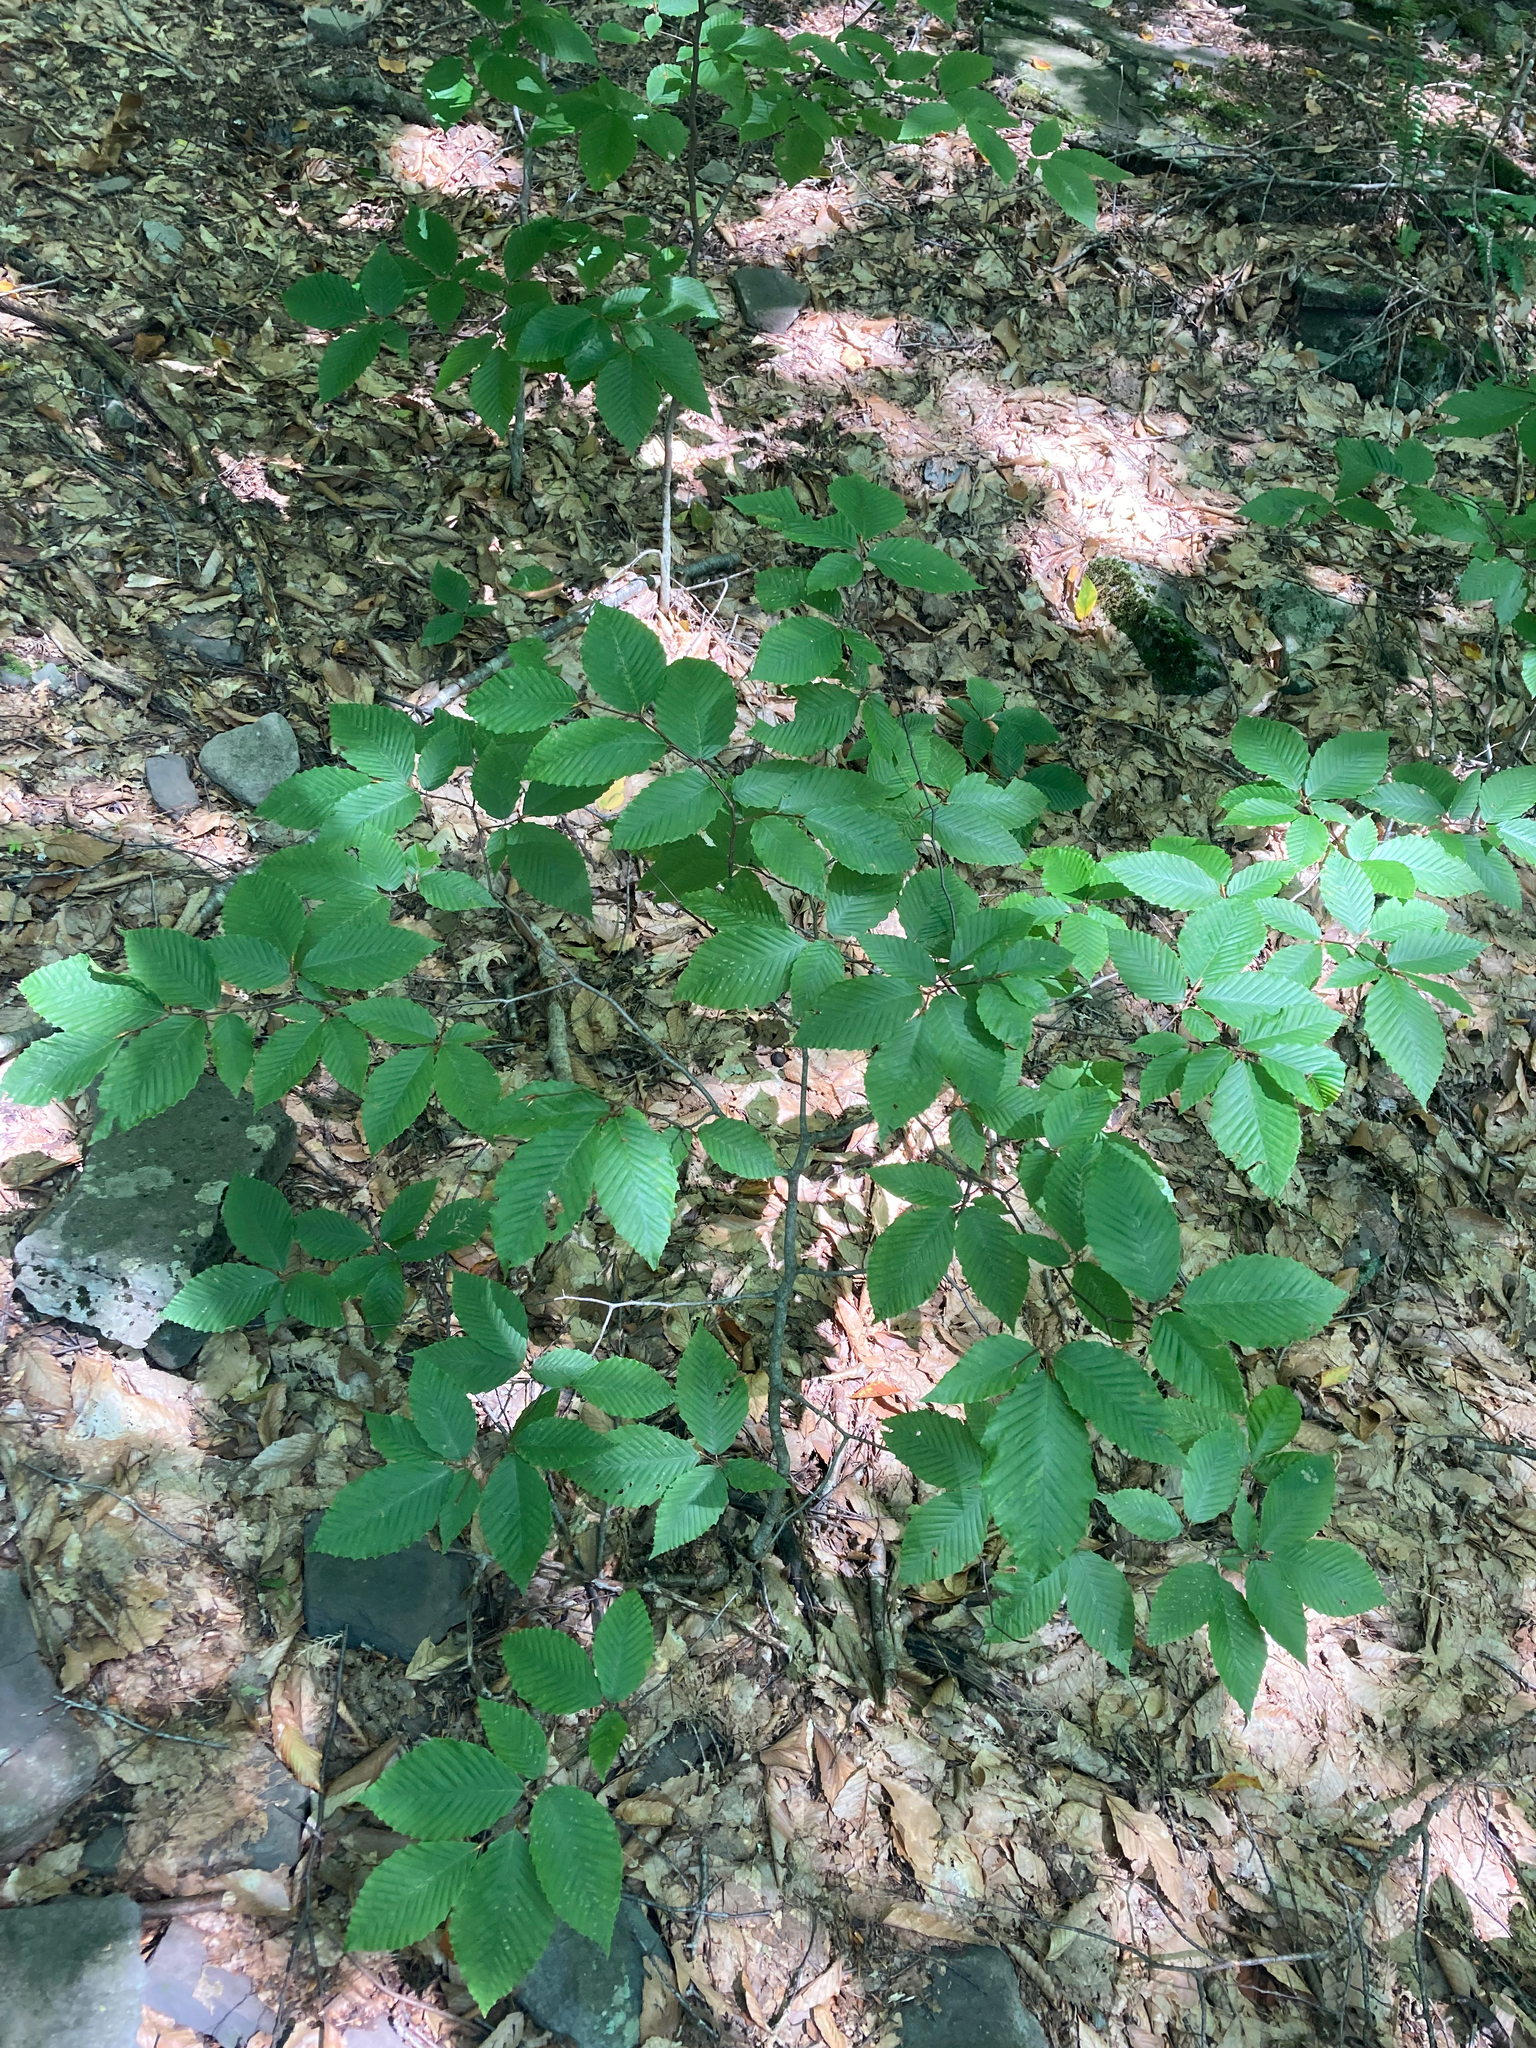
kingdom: Plantae
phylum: Tracheophyta
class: Magnoliopsida
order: Fagales
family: Fagaceae
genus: Fagus
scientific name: Fagus grandifolia
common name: American beech
